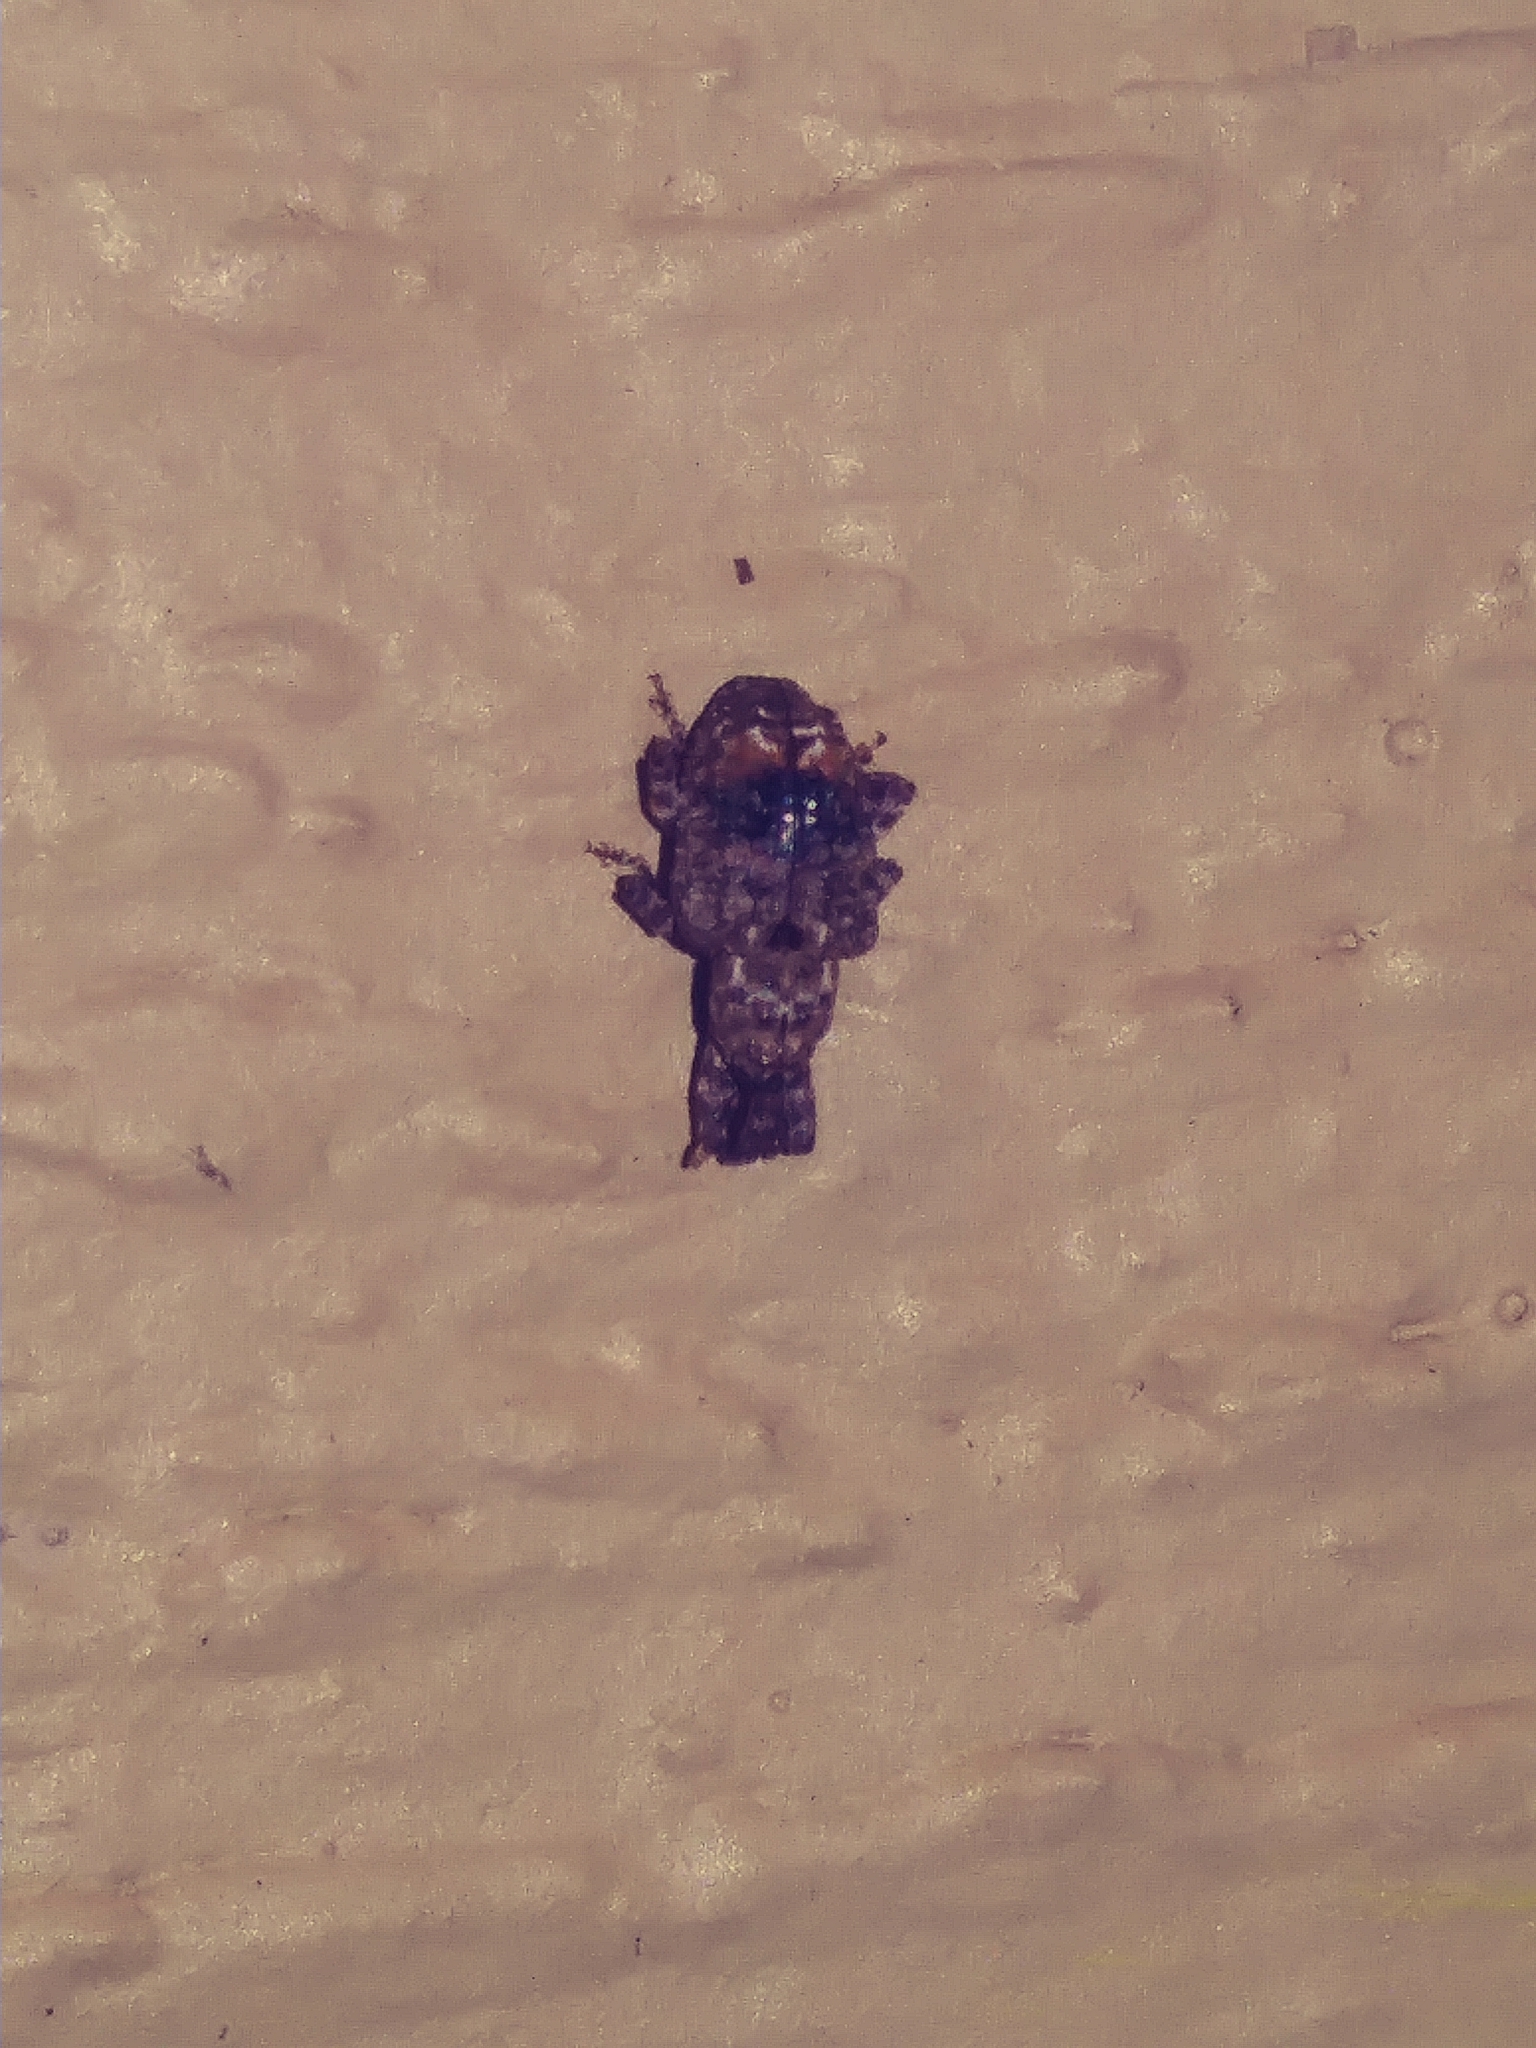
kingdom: Animalia
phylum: Arthropoda
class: Insecta
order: Coleoptera
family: Curculionidae
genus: Conotrachelus
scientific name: Conotrachelus nenuphar
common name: Plum curculio
